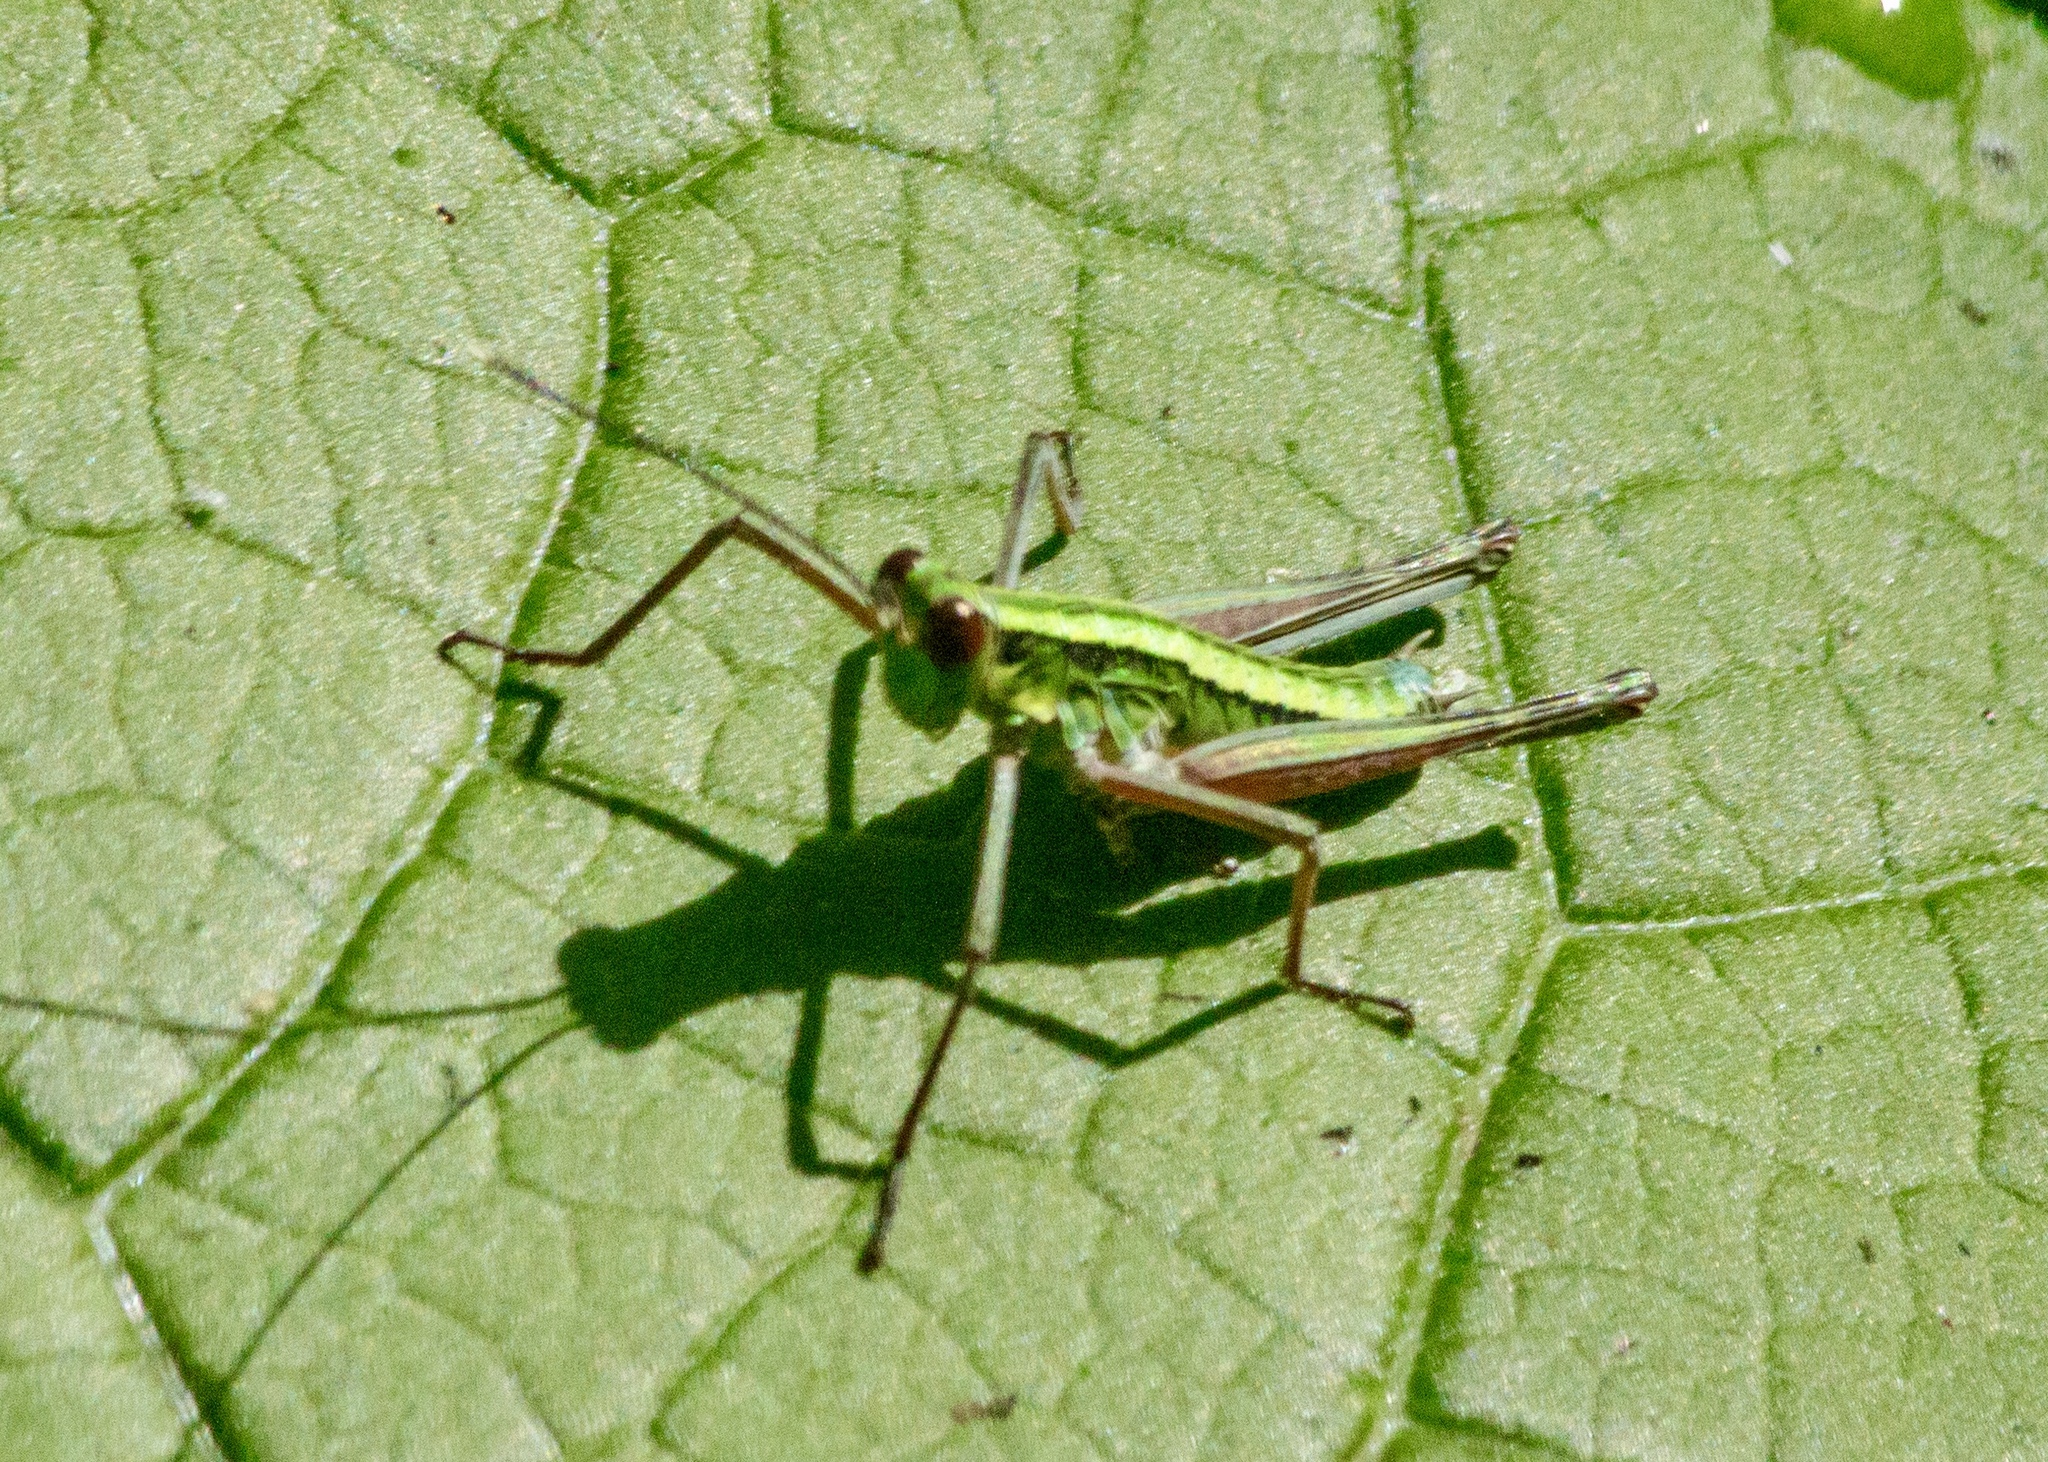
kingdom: Animalia
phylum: Arthropoda
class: Insecta
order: Orthoptera
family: Eumastacidae
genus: Gomphomastax
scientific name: Gomphomastax clavata
